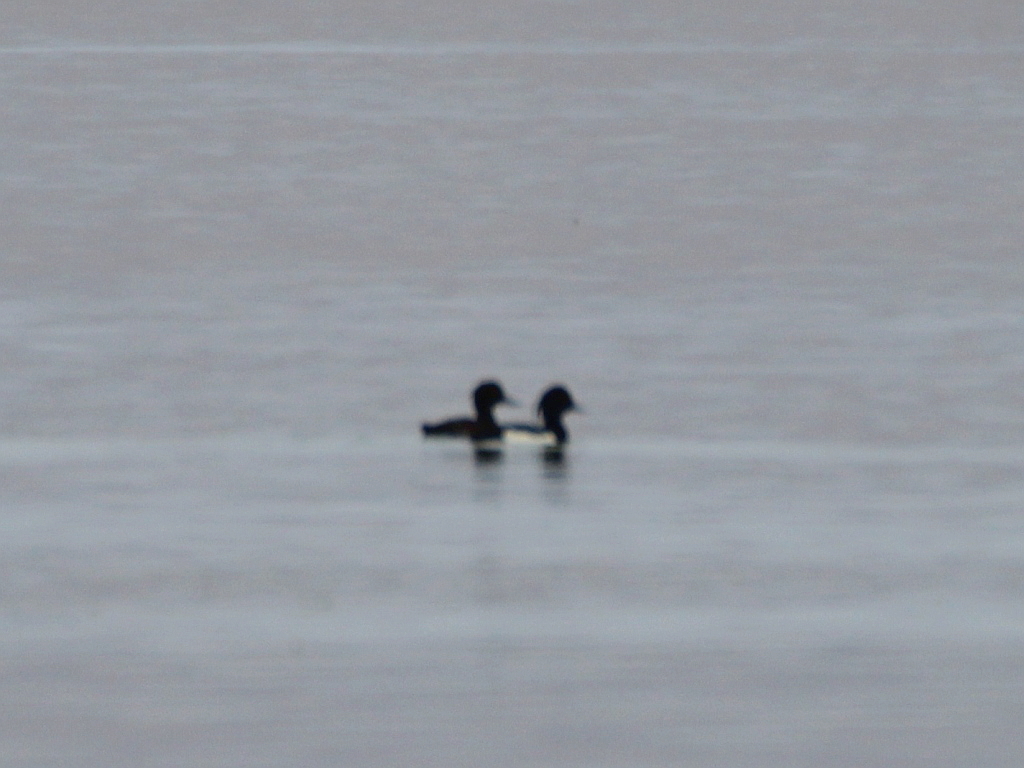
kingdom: Animalia
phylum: Chordata
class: Aves
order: Anseriformes
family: Anatidae
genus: Aythya
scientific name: Aythya fuligula
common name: Tufted duck
